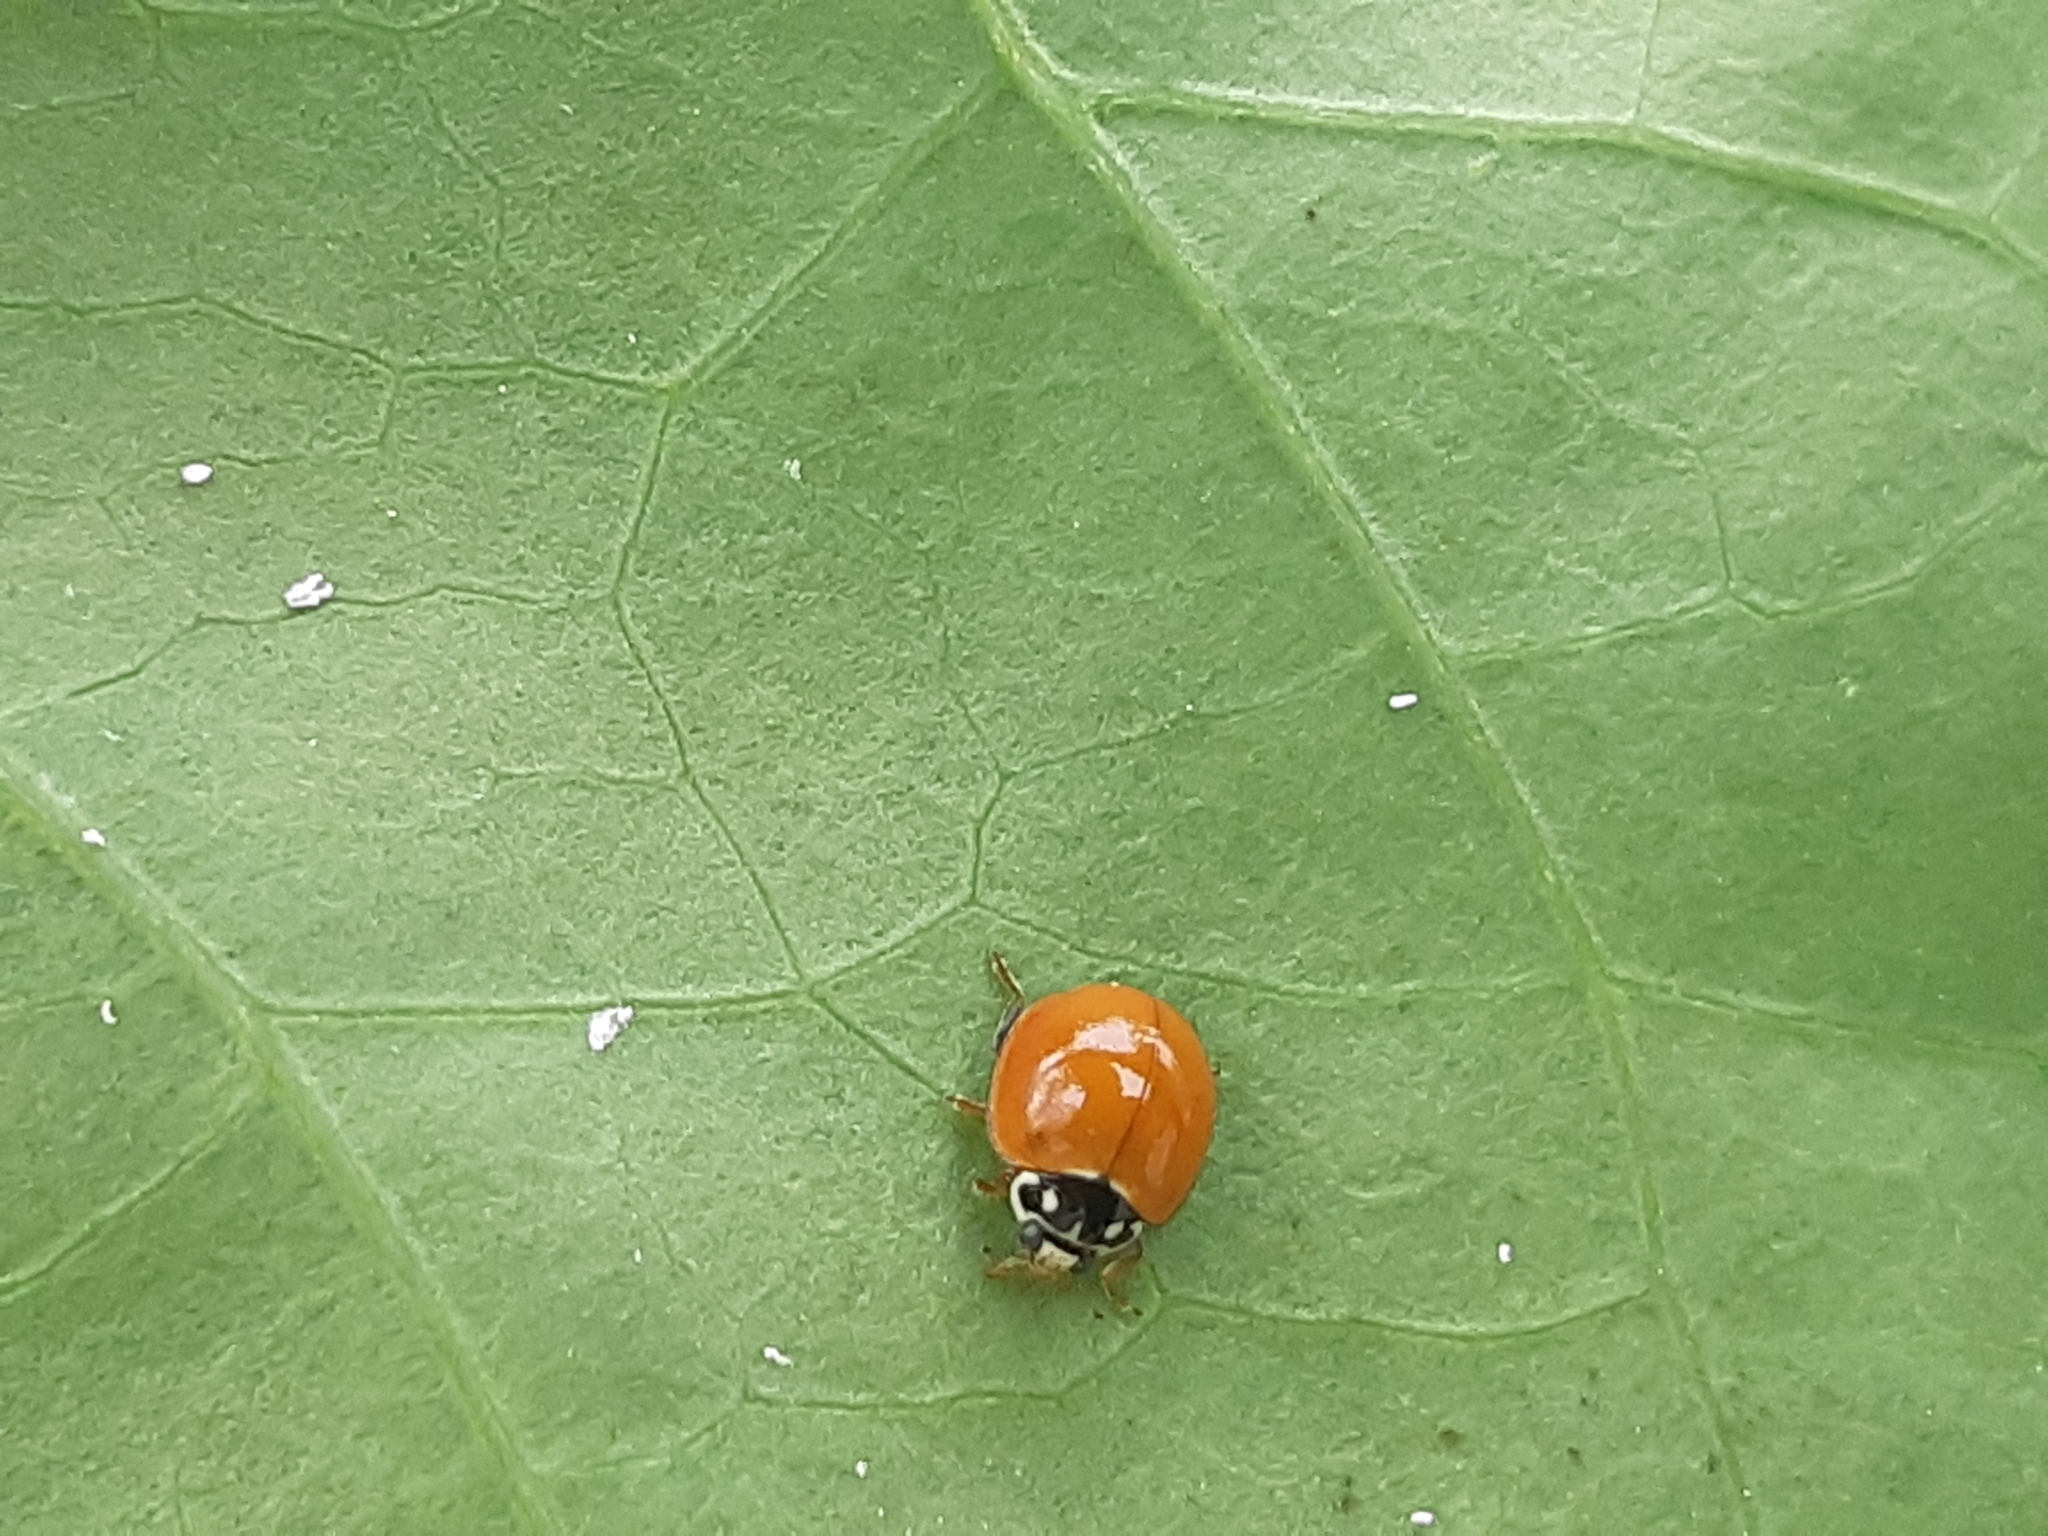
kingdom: Animalia
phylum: Arthropoda
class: Insecta
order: Coleoptera
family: Coccinellidae
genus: Cycloneda
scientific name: Cycloneda sanguinea
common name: Ladybird beetle
